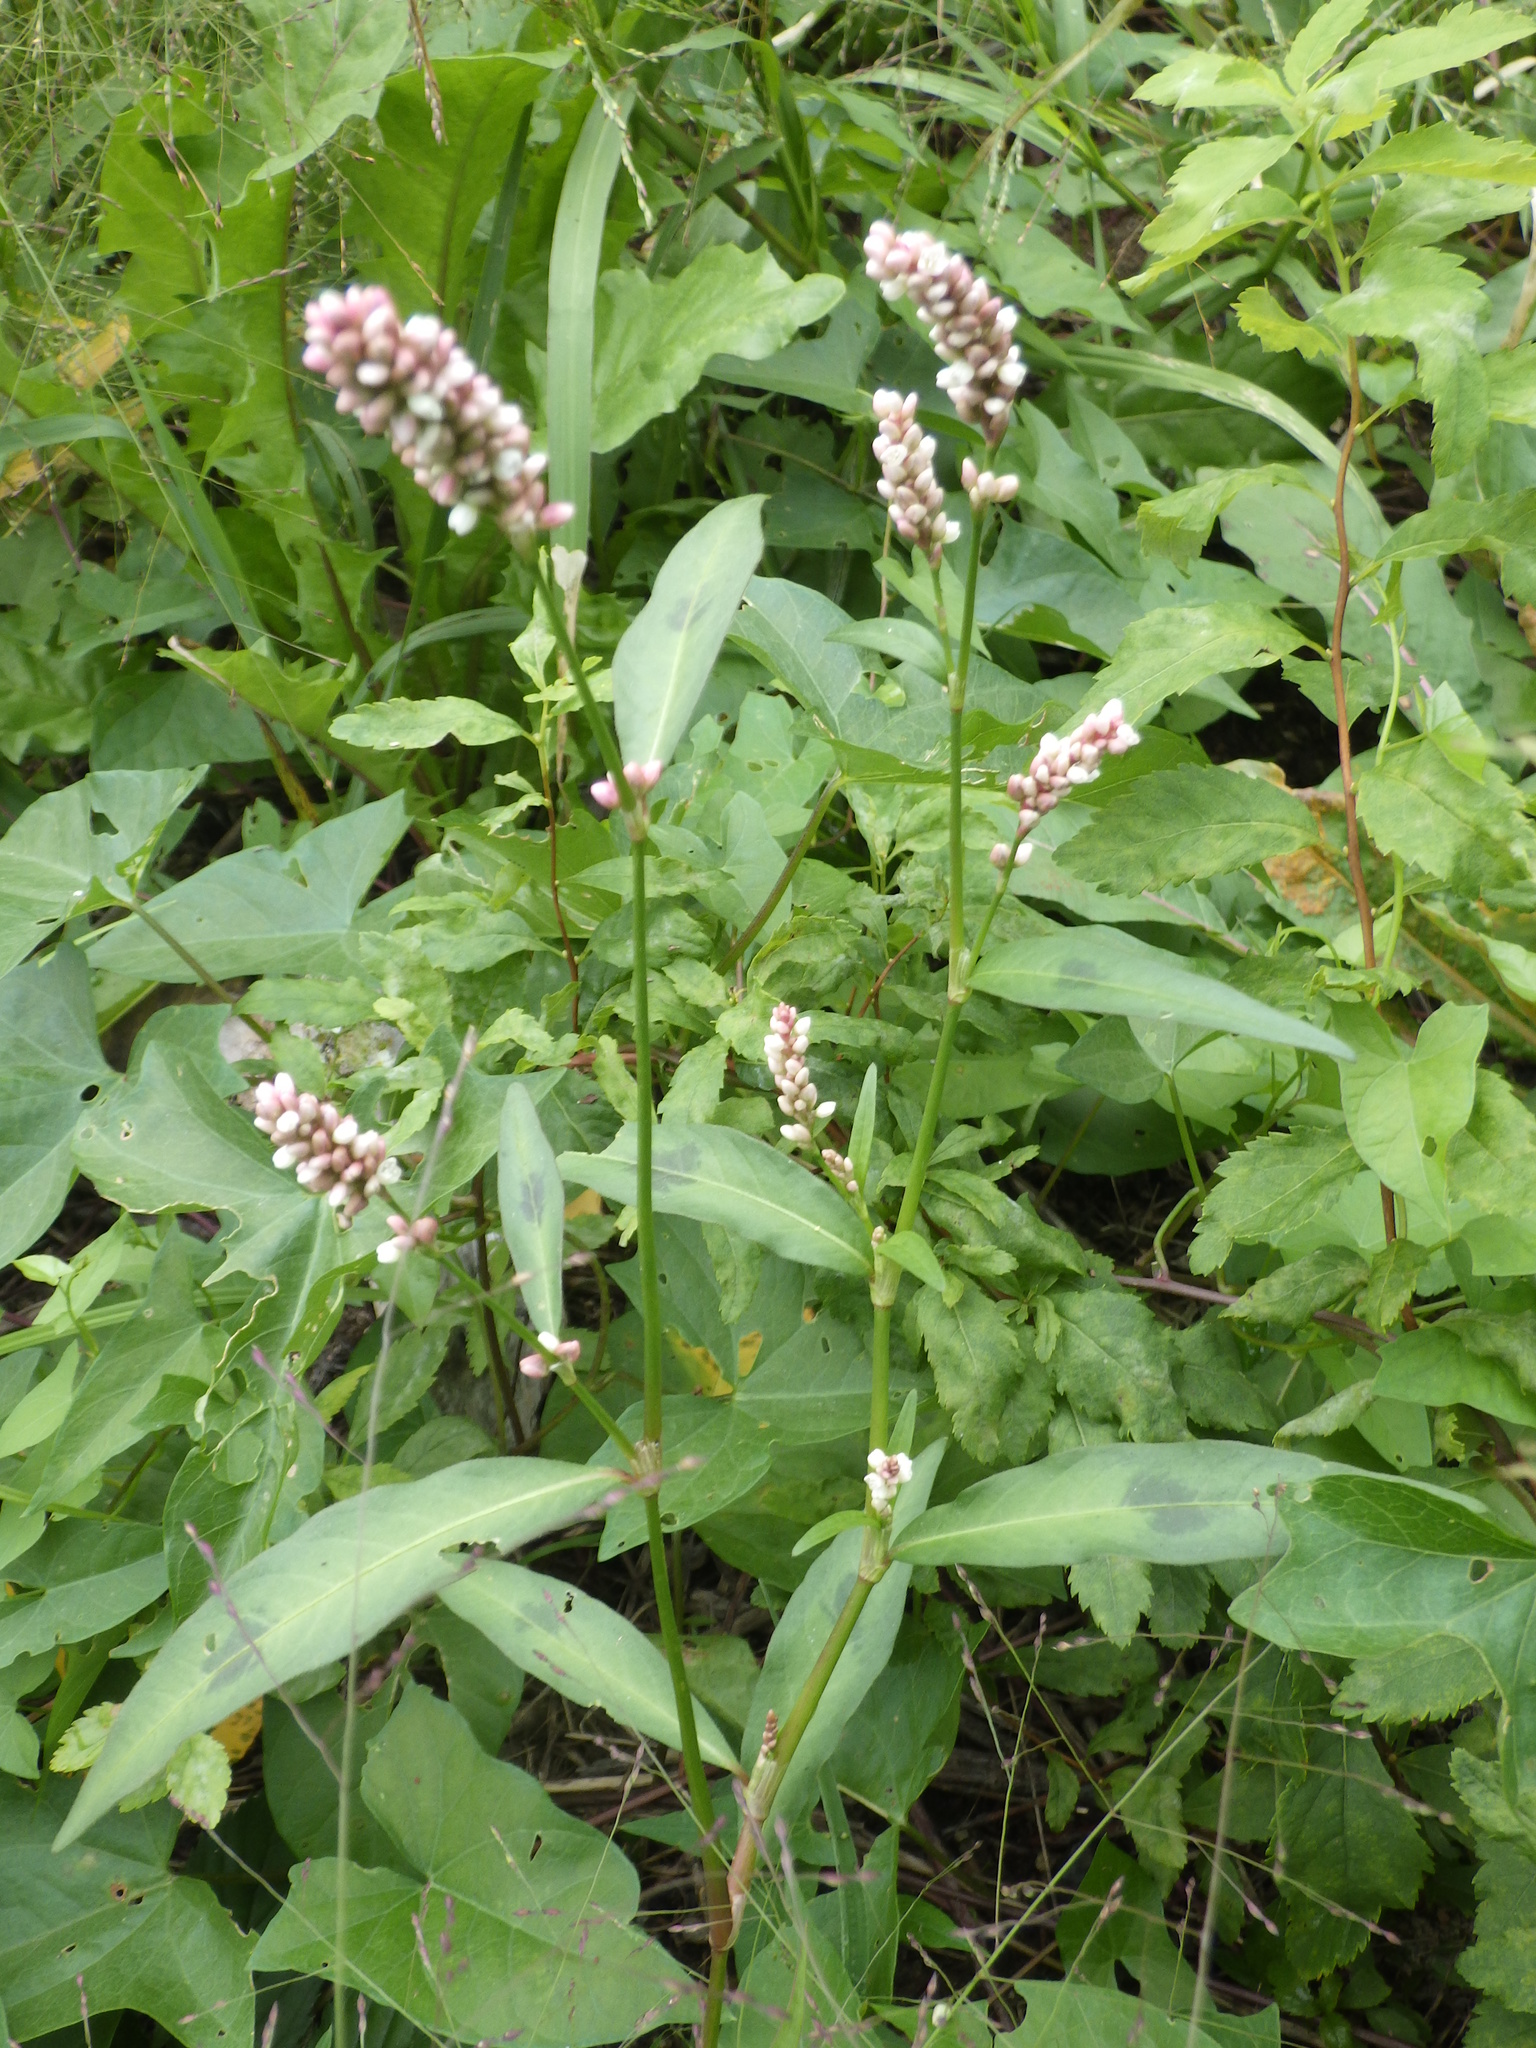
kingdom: Plantae
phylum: Tracheophyta
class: Magnoliopsida
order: Caryophyllales
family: Polygonaceae
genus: Persicaria
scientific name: Persicaria maculosa
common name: Redshank
